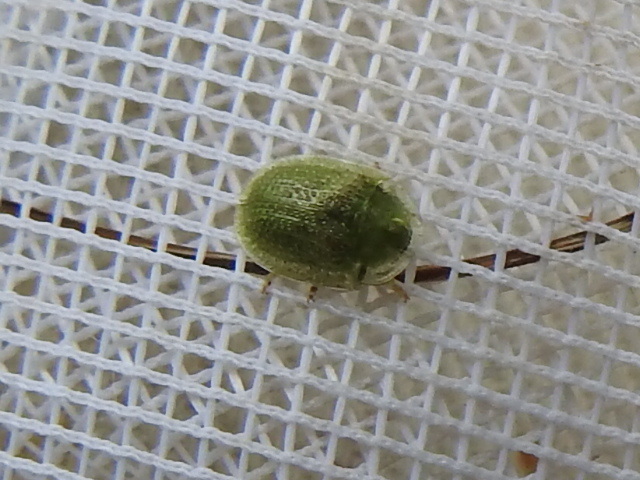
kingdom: Animalia
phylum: Arthropoda
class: Insecta
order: Coleoptera
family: Chrysomelidae
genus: Gratiana
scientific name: Gratiana pallidula
